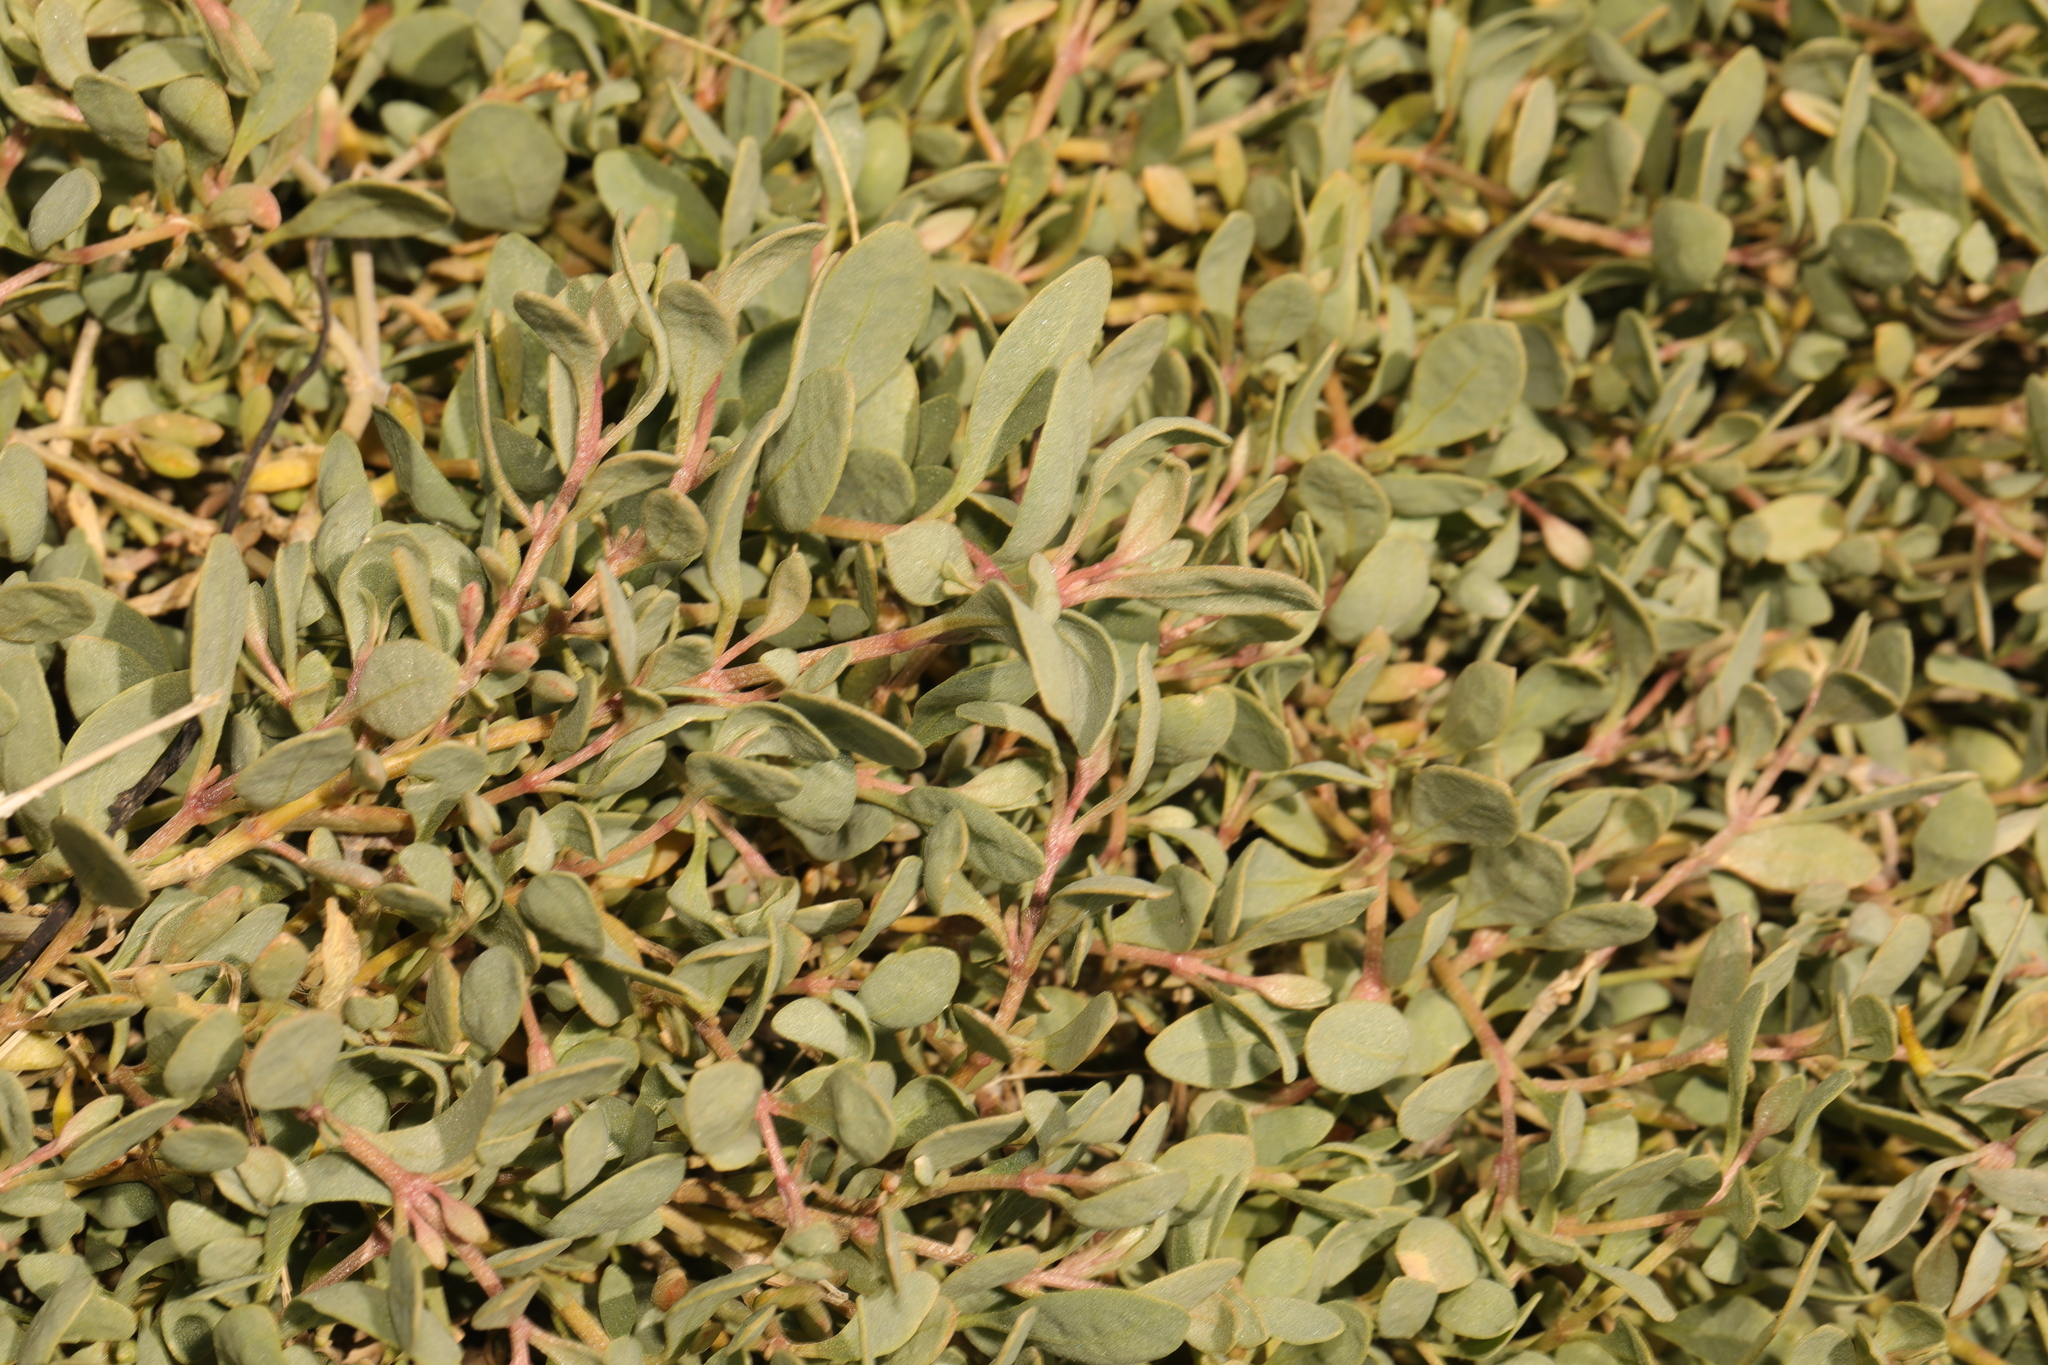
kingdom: Plantae
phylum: Tracheophyta
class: Magnoliopsida
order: Caryophyllales
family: Amaranthaceae
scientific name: Amaranthaceae
